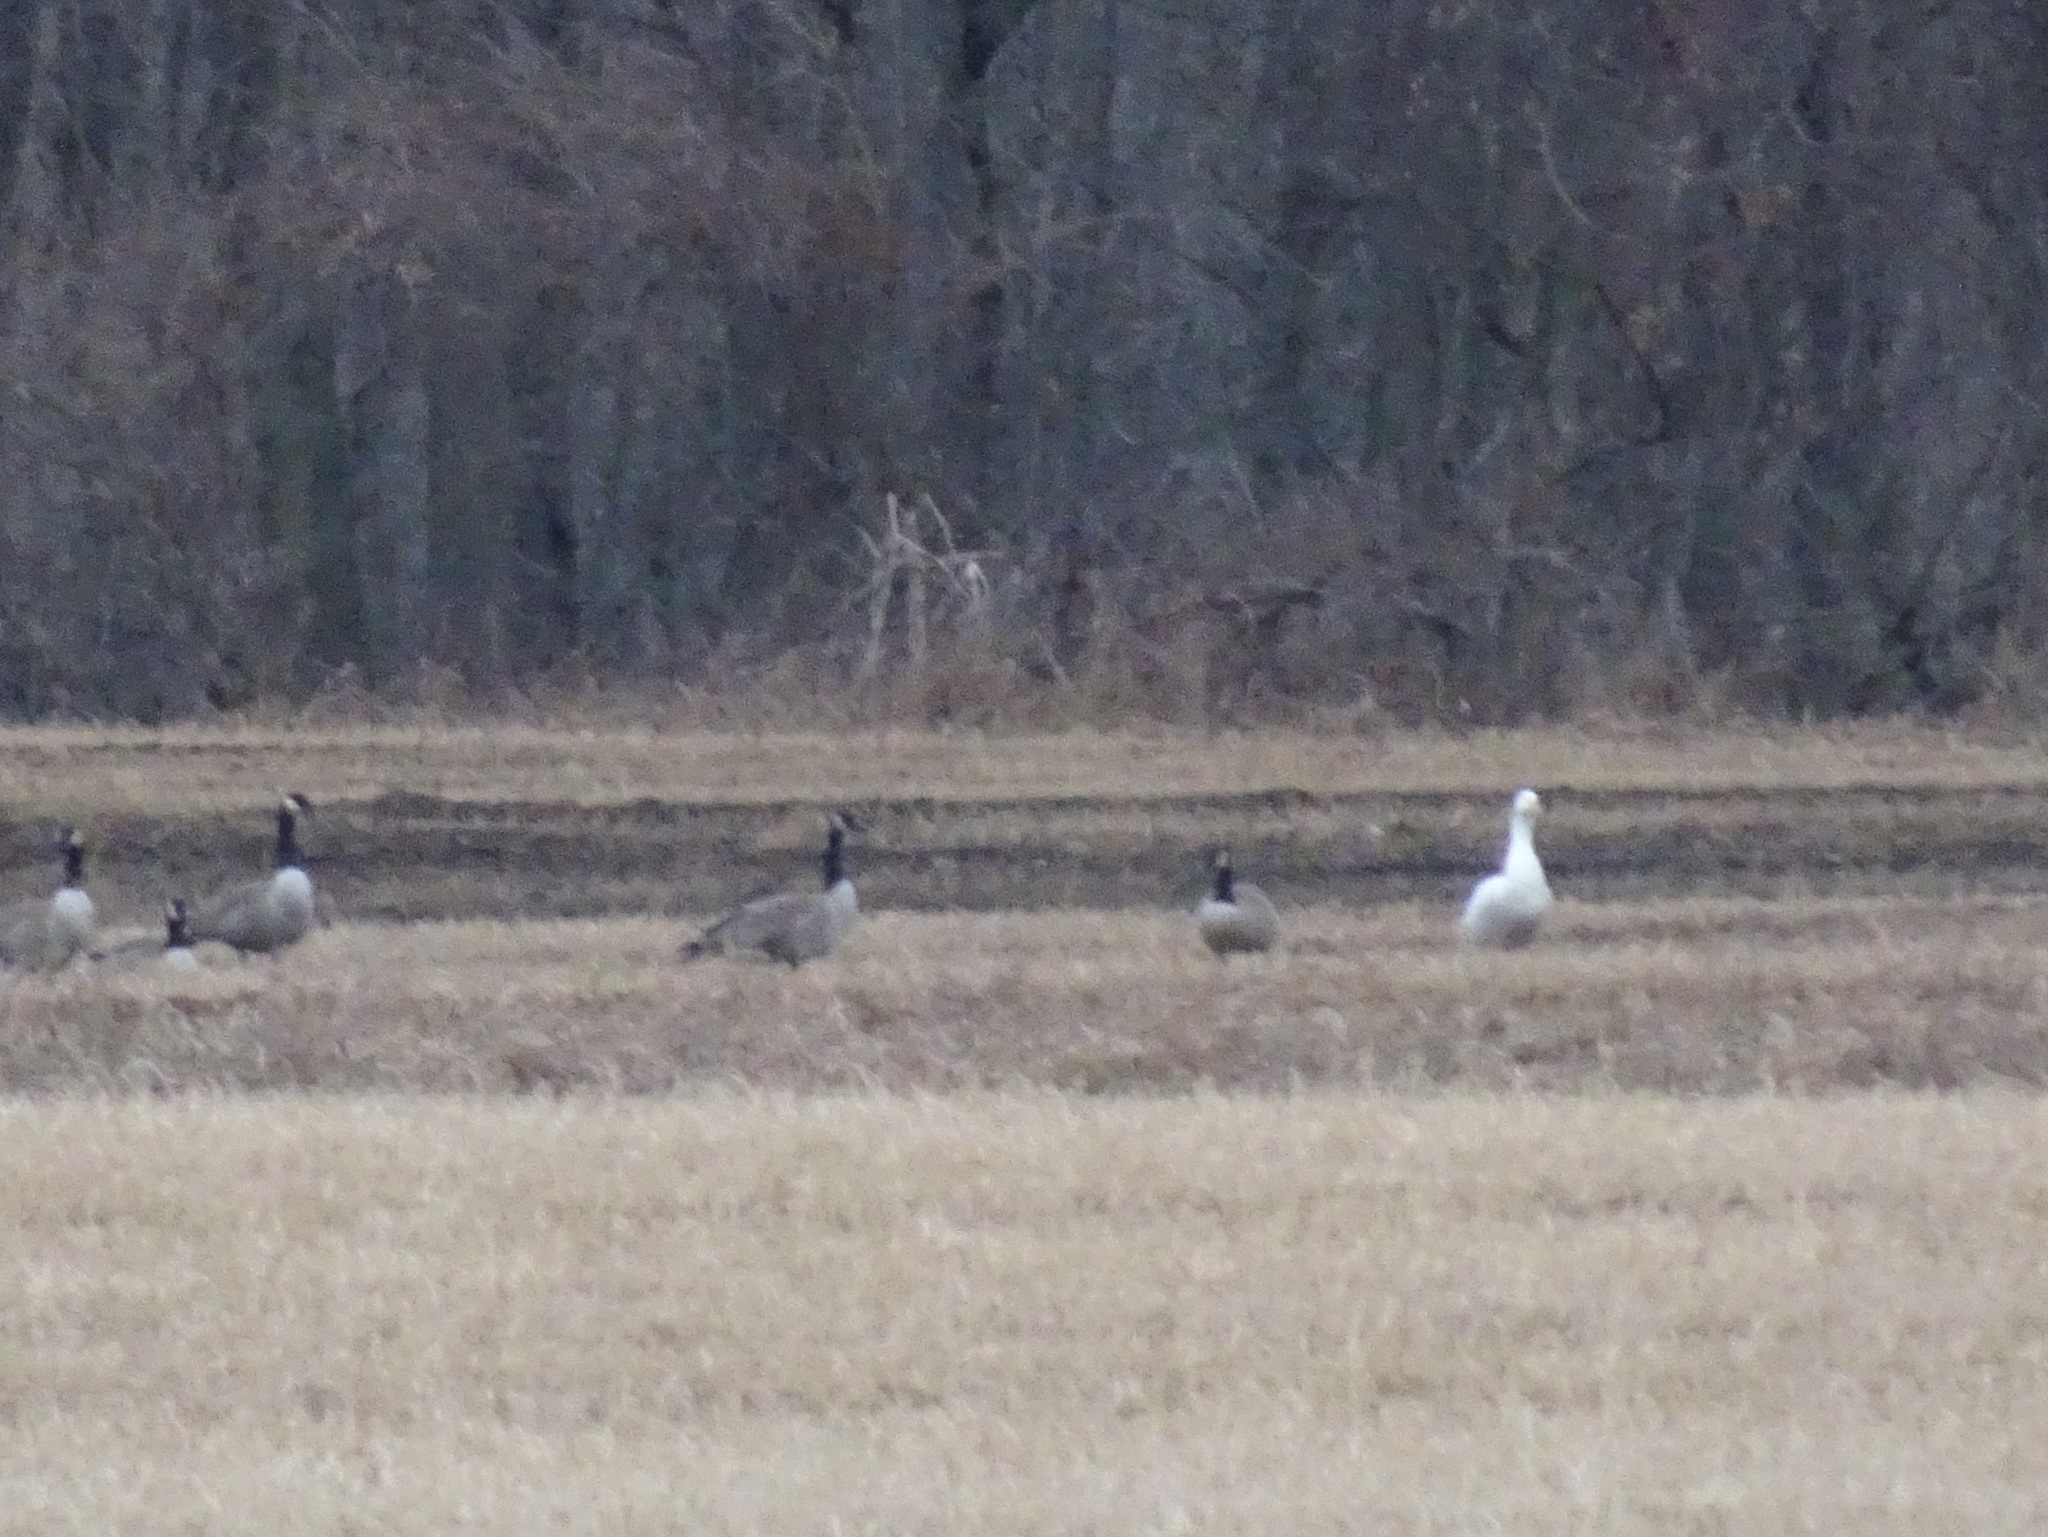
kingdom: Animalia
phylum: Chordata
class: Aves
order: Anseriformes
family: Anatidae
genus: Anser
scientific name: Anser anser
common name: Greylag goose
